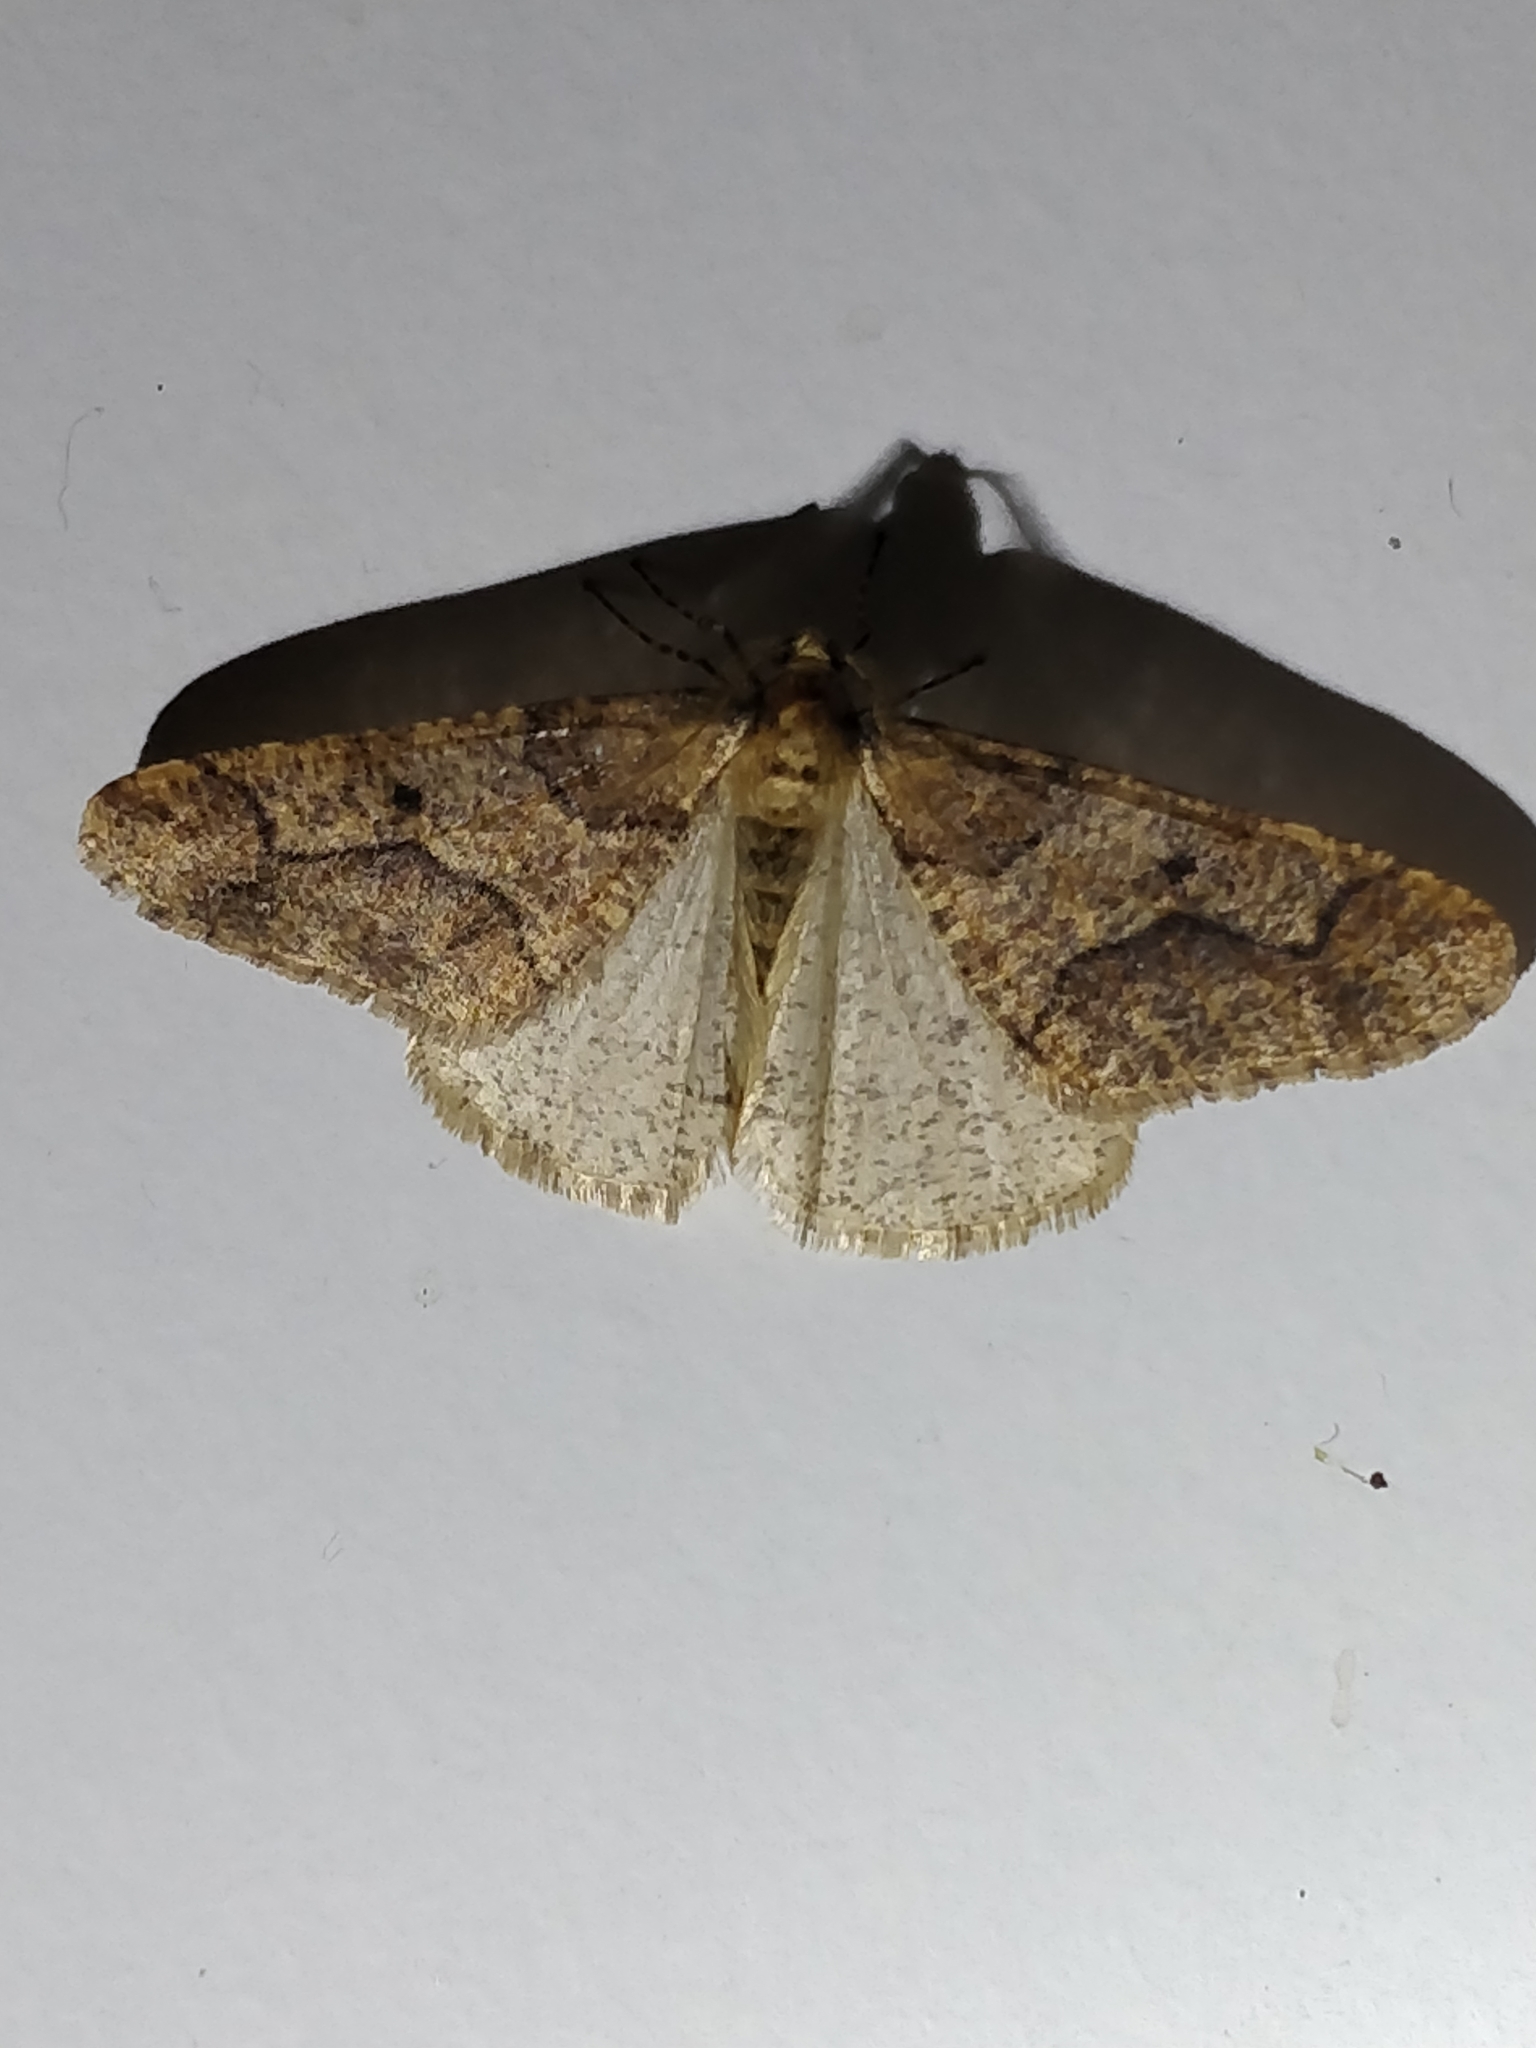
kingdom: Animalia
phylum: Arthropoda
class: Insecta
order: Lepidoptera
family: Geometridae
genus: Erannis
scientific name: Erannis defoliaria
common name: Mottled umber
